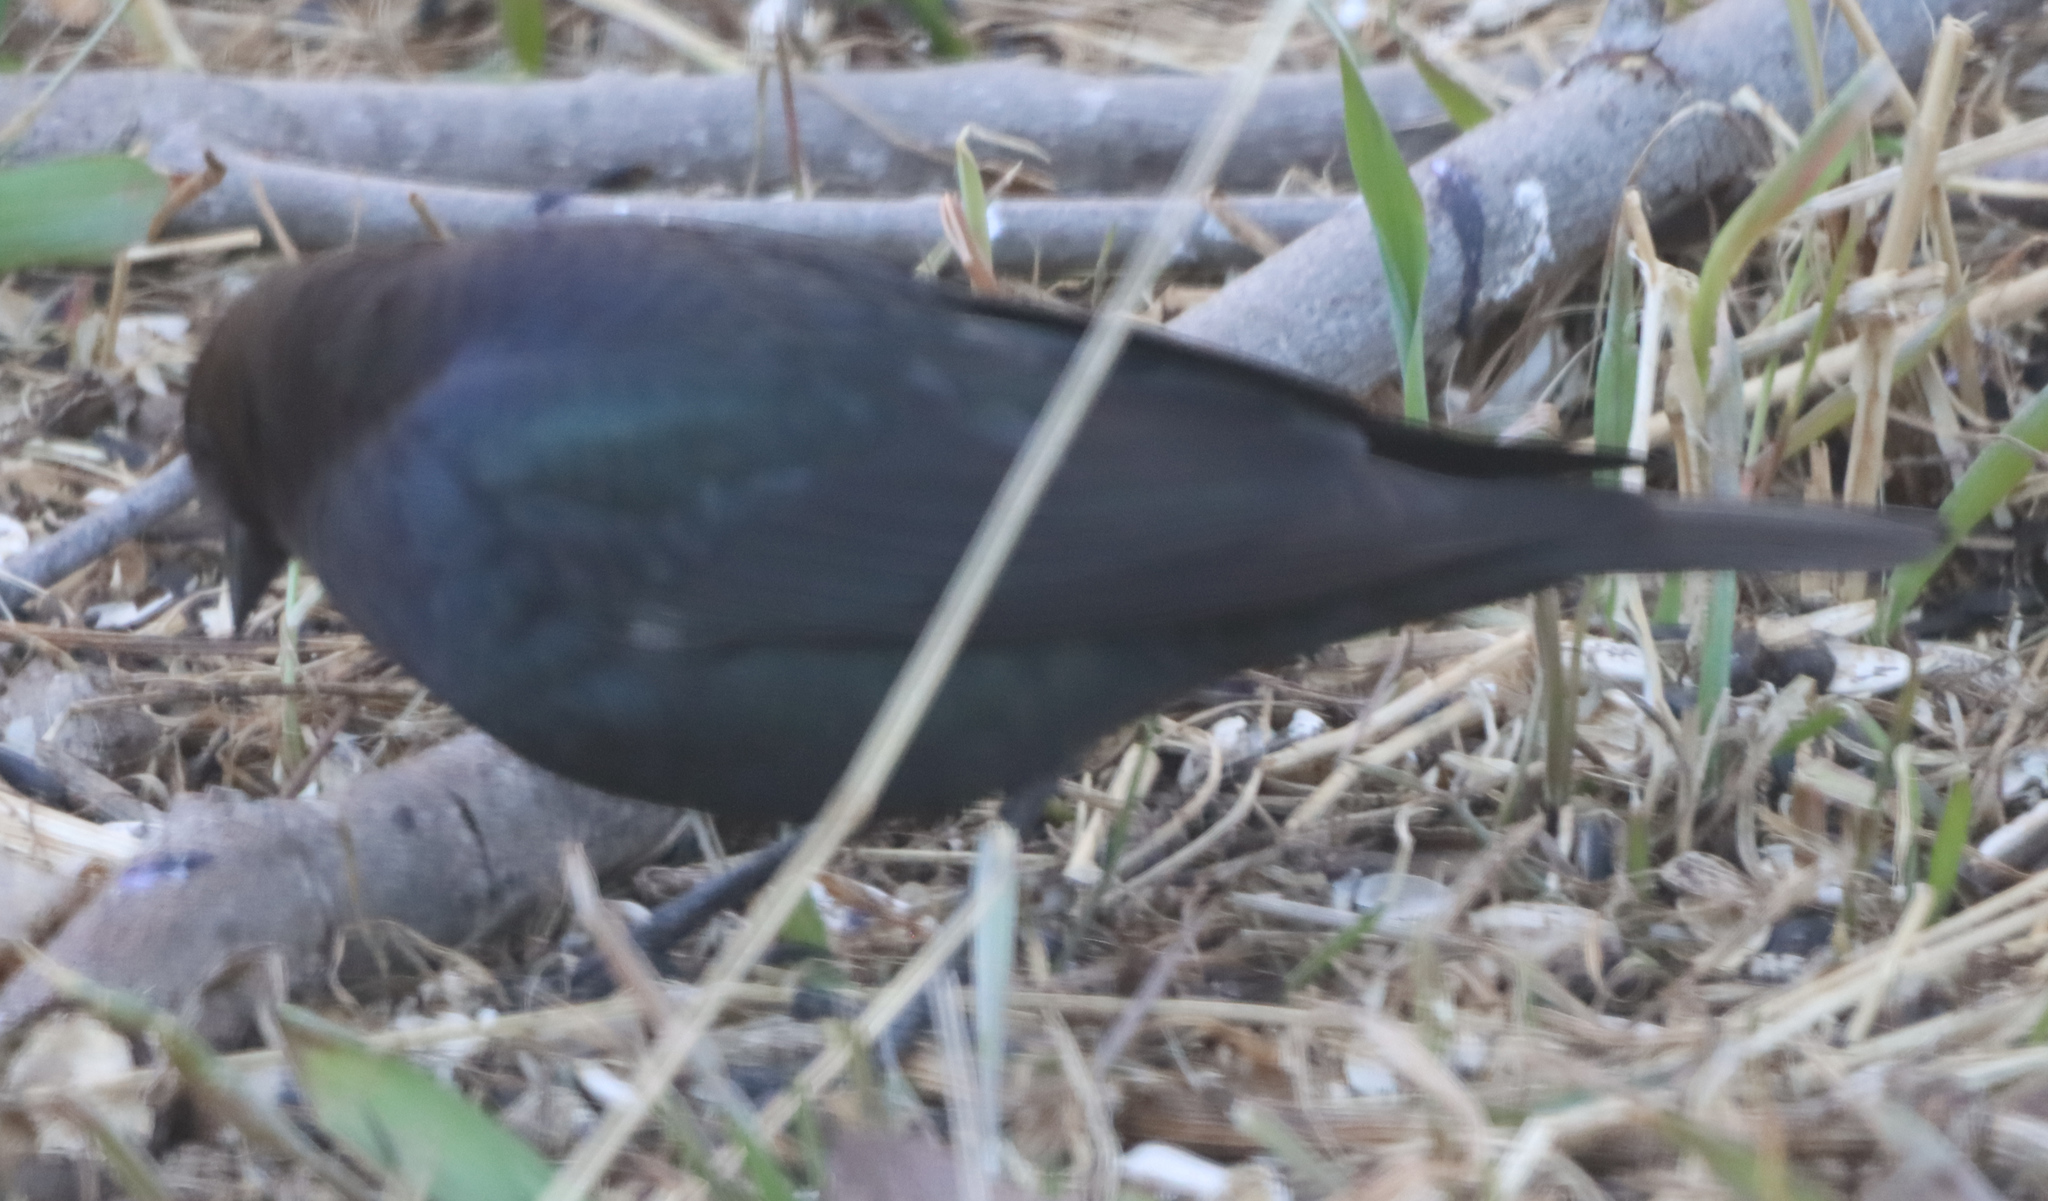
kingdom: Animalia
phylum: Chordata
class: Aves
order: Passeriformes
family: Icteridae
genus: Molothrus
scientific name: Molothrus ater
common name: Brown-headed cowbird
